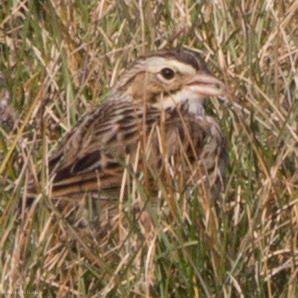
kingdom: Animalia
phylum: Chordata
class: Aves
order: Passeriformes
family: Passerellidae
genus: Passerculus
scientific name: Passerculus sandwichensis
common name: Savannah sparrow
